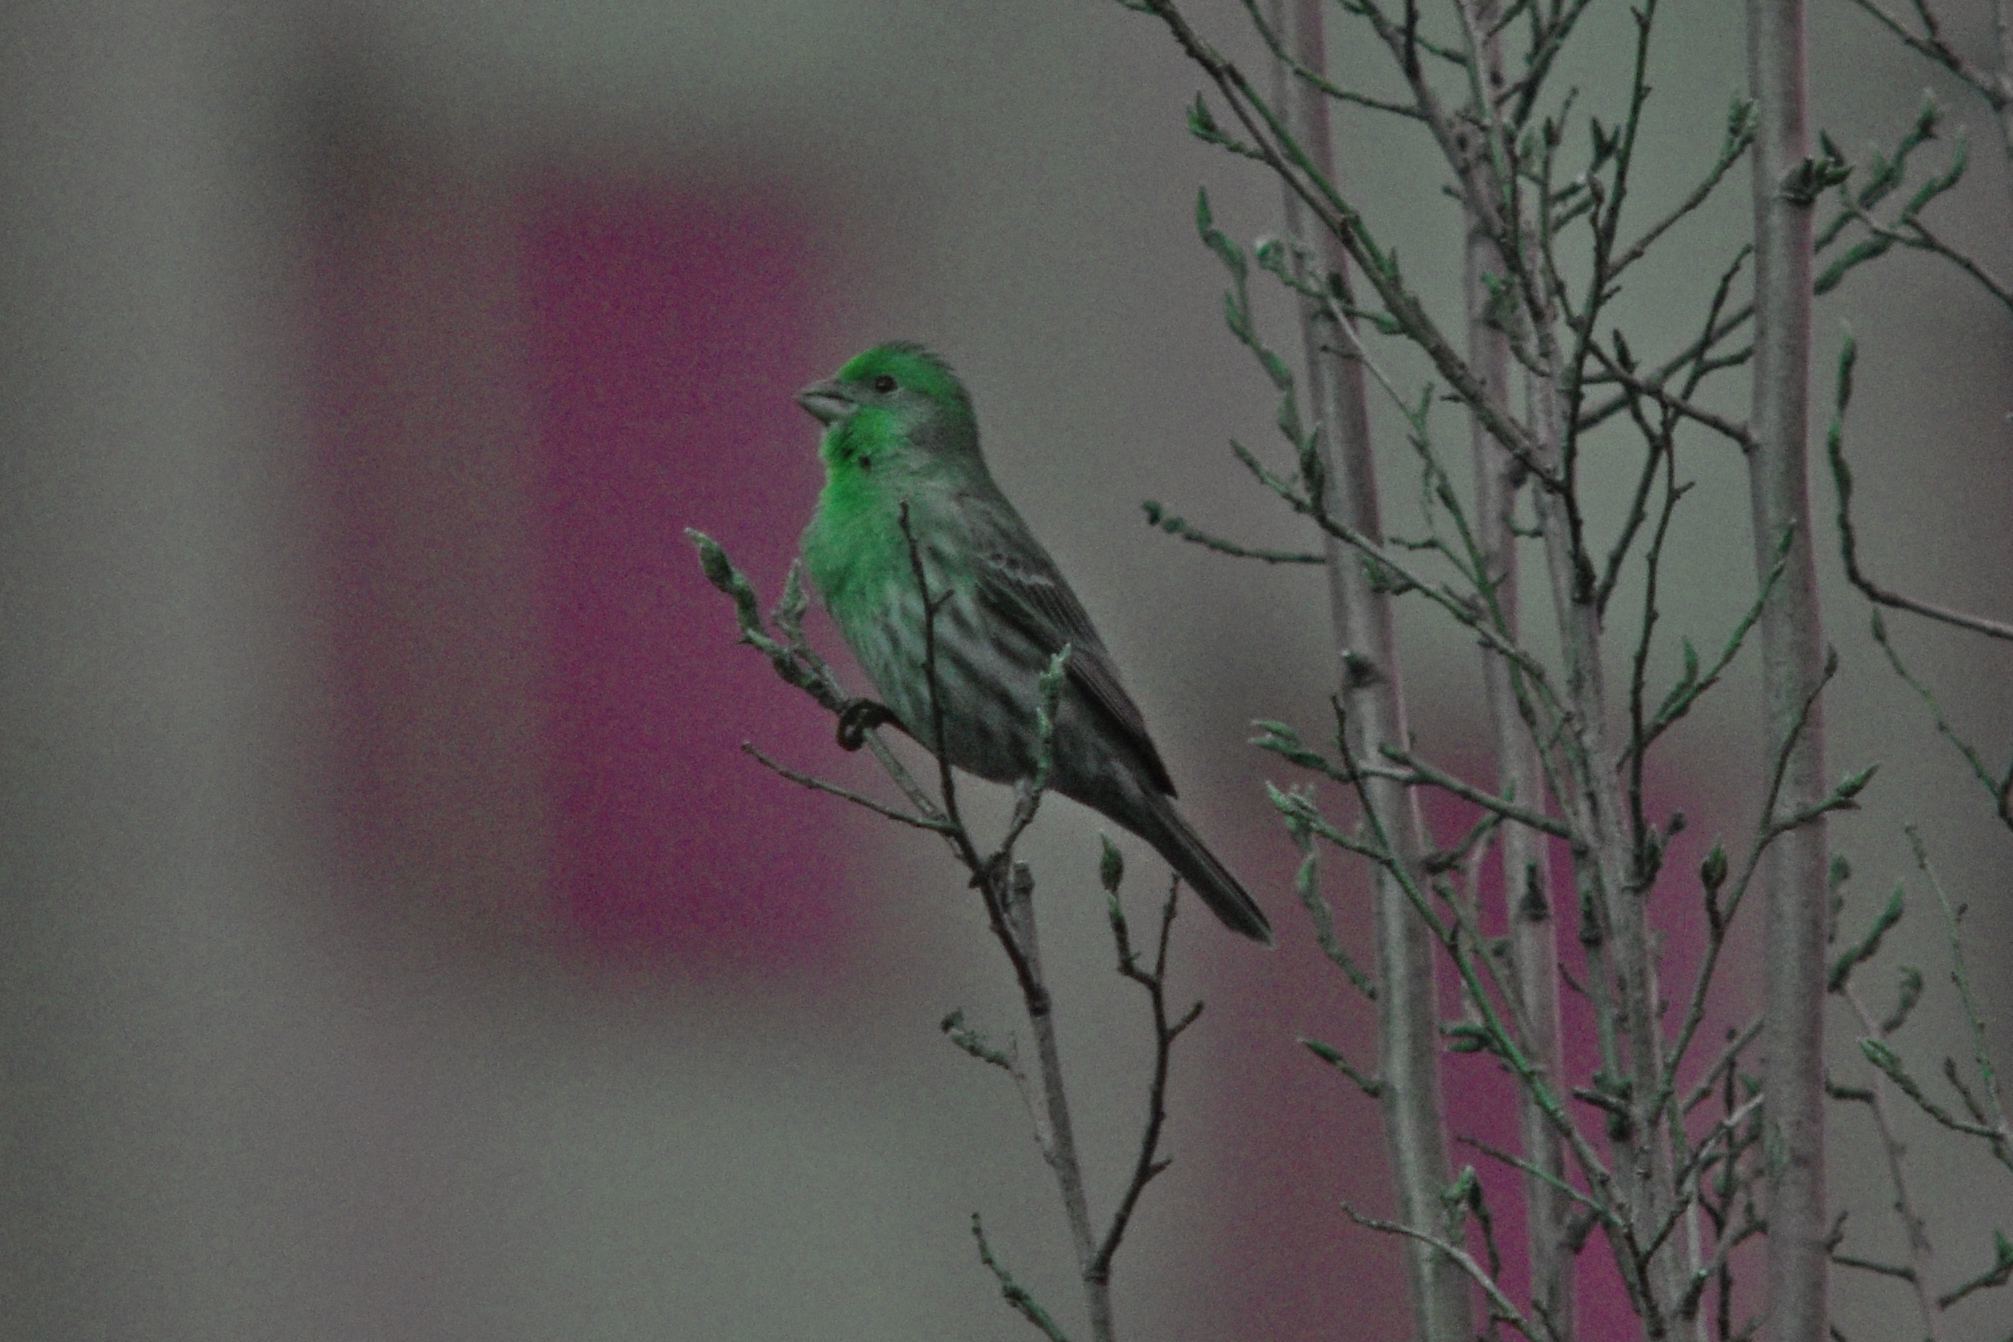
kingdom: Animalia
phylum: Chordata
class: Aves
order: Passeriformes
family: Fringillidae
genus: Haemorhous
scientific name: Haemorhous mexicanus
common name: House finch
